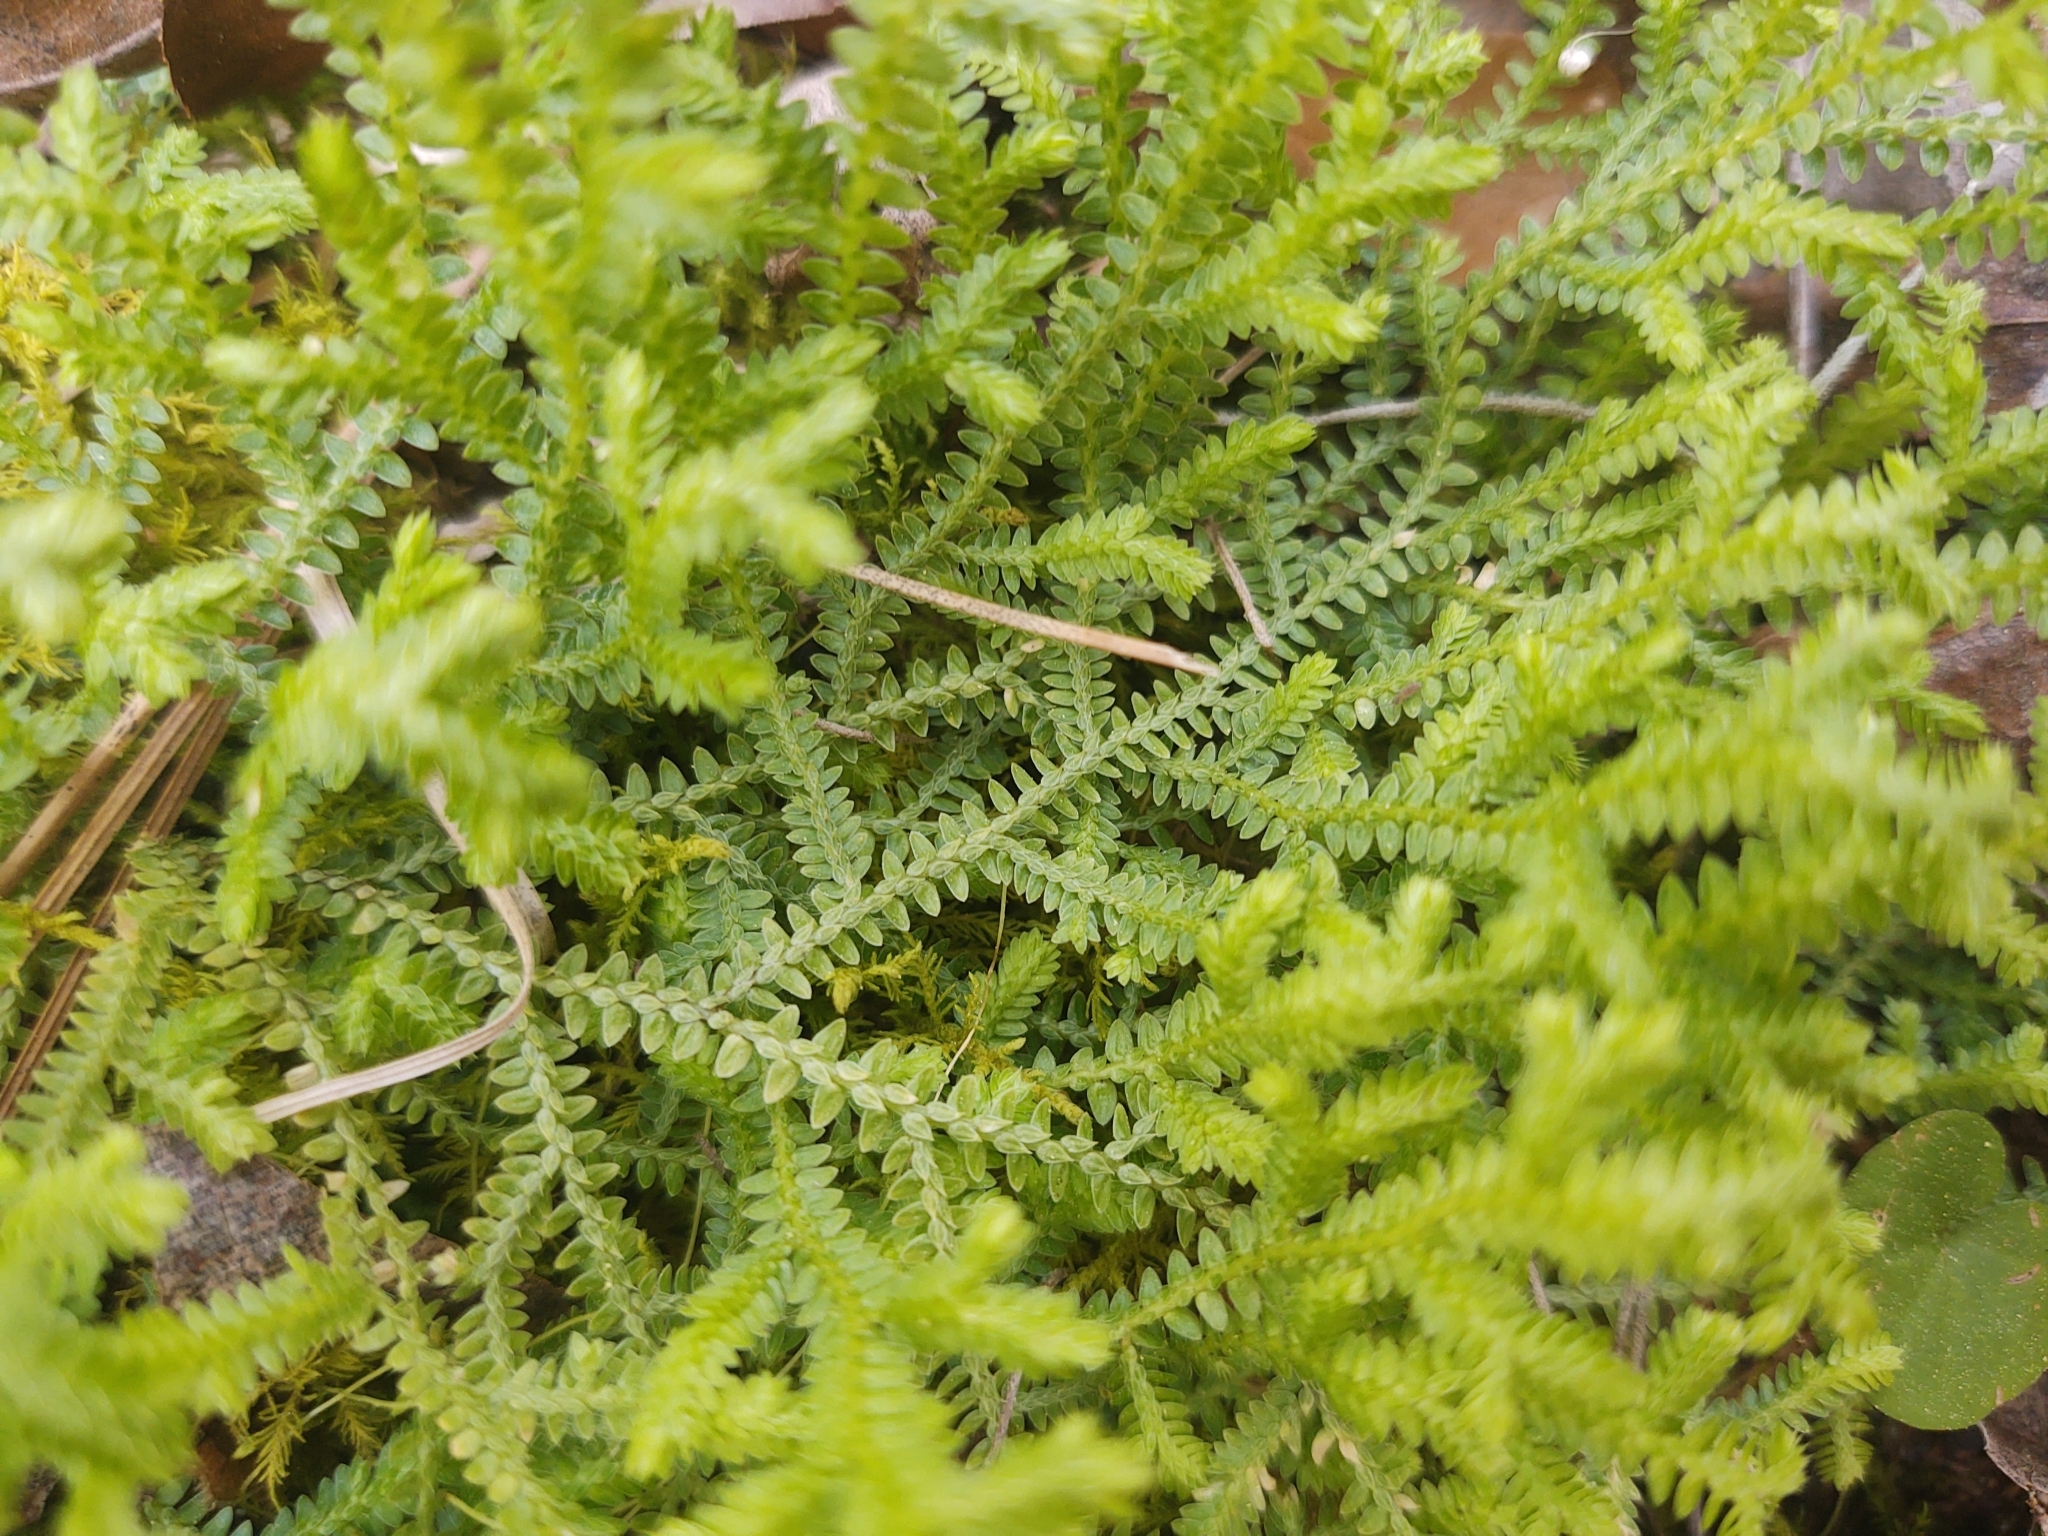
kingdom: Plantae
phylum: Tracheophyta
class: Lycopodiopsida
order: Selaginellales
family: Selaginellaceae
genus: Selaginella
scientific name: Selaginella apoda
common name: Creeping spikemoss
